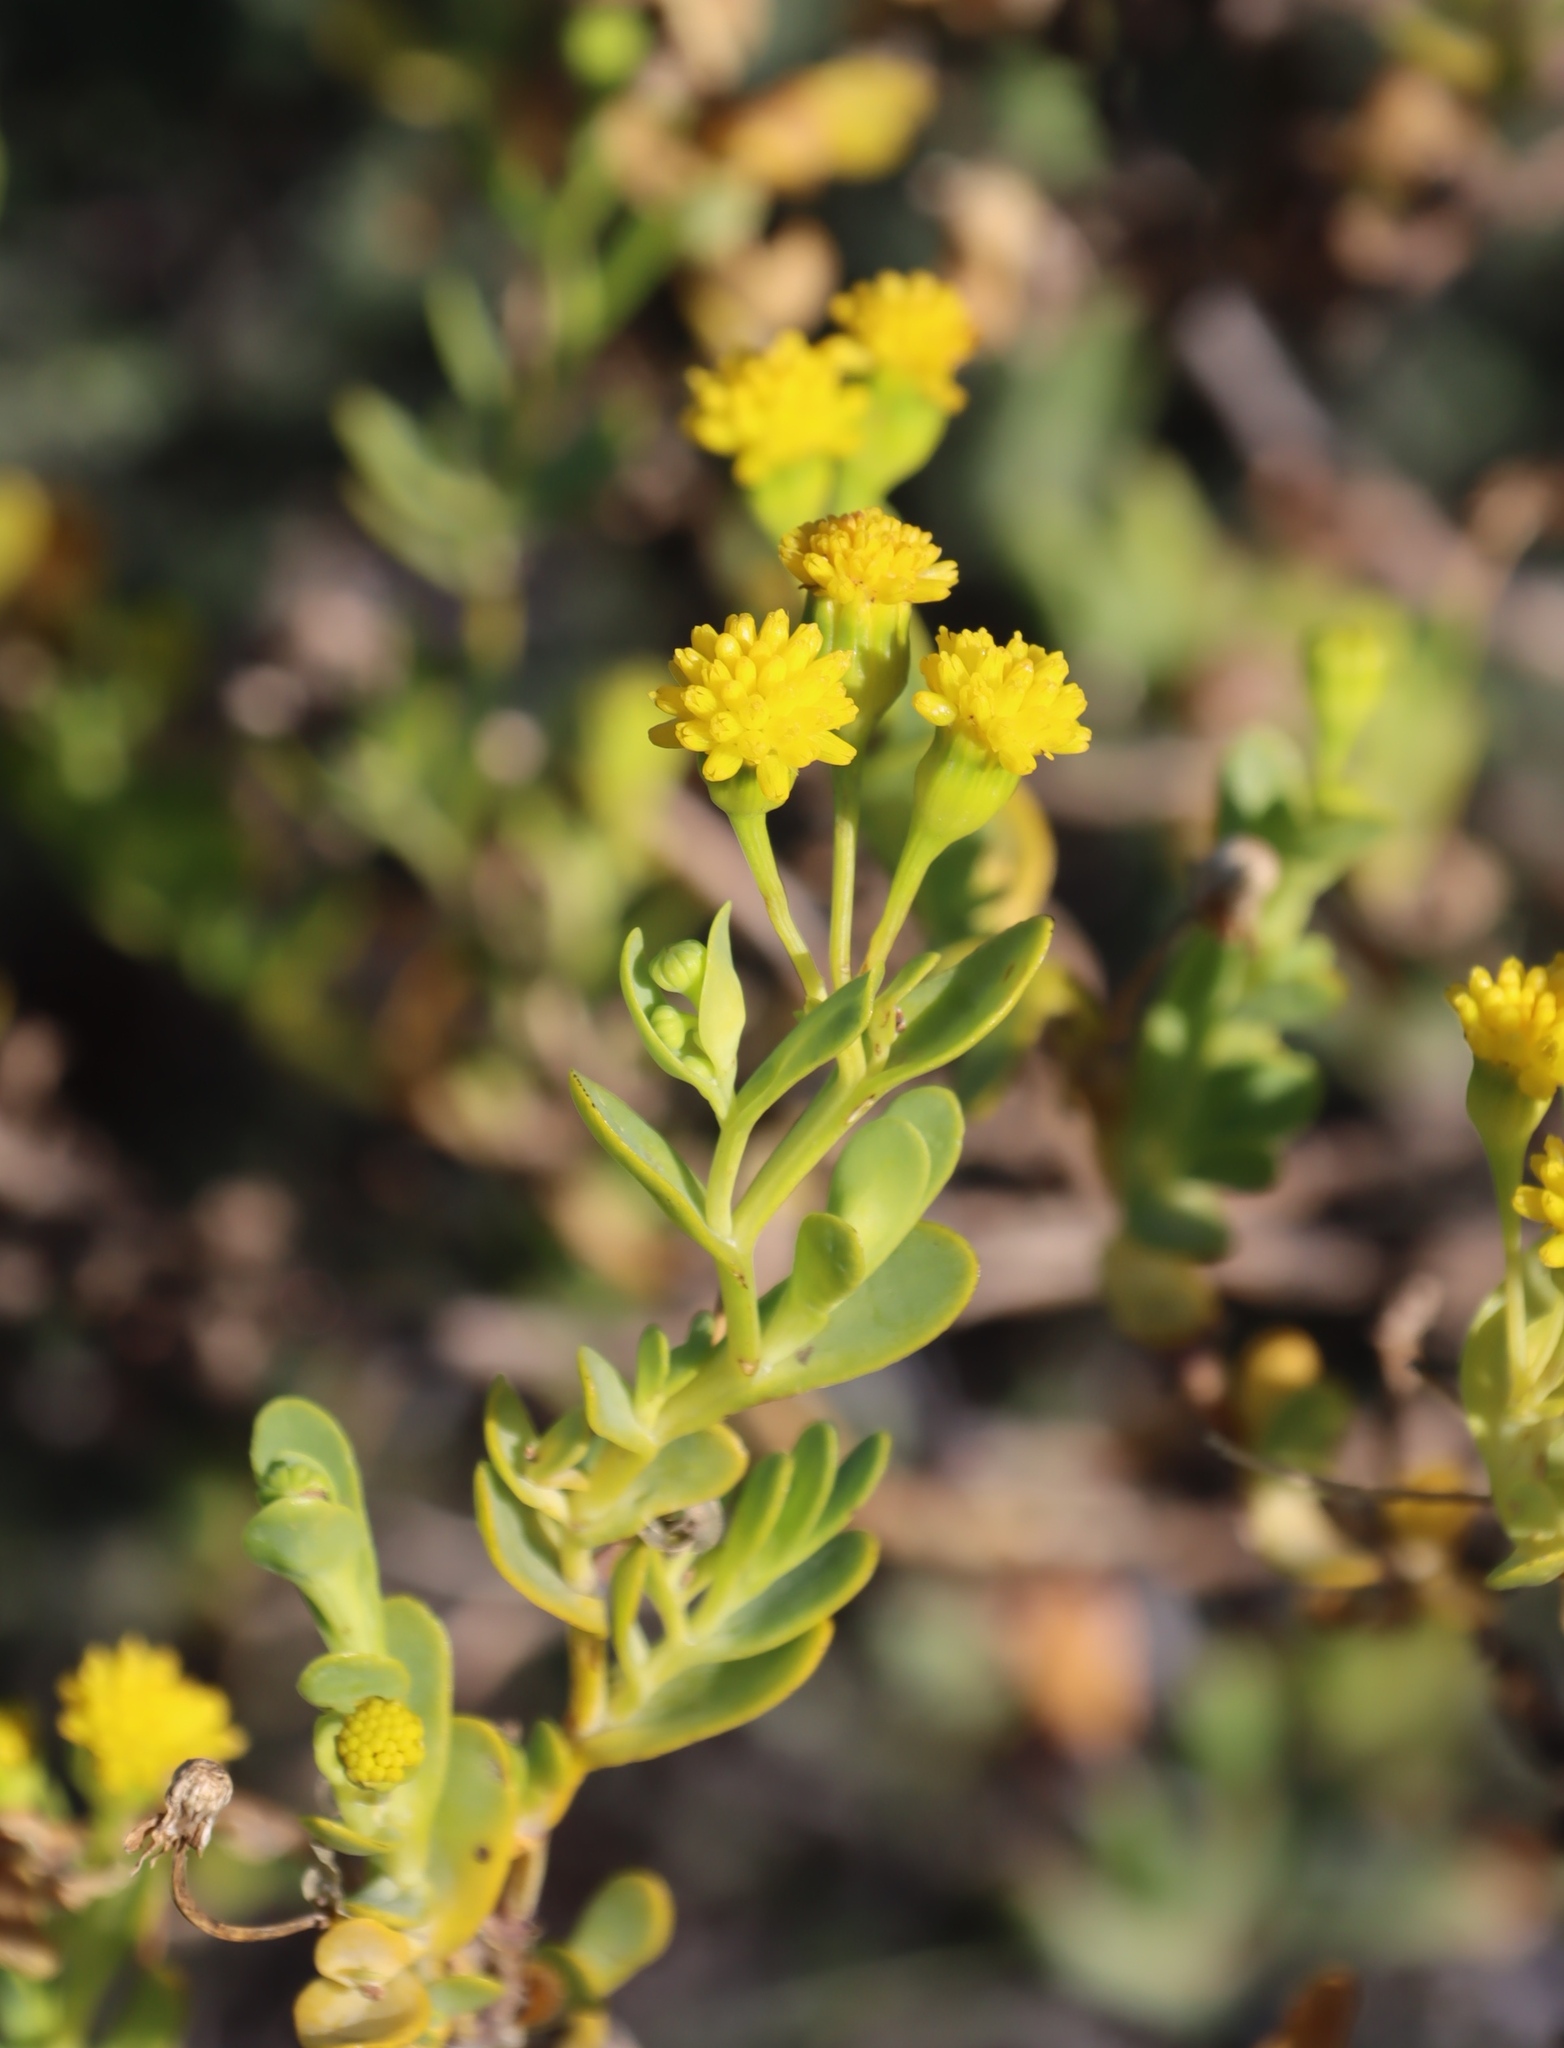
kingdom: Plantae
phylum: Tracheophyta
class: Magnoliopsida
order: Asterales
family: Asteraceae
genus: Hertia
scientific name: Hertia kraussii
